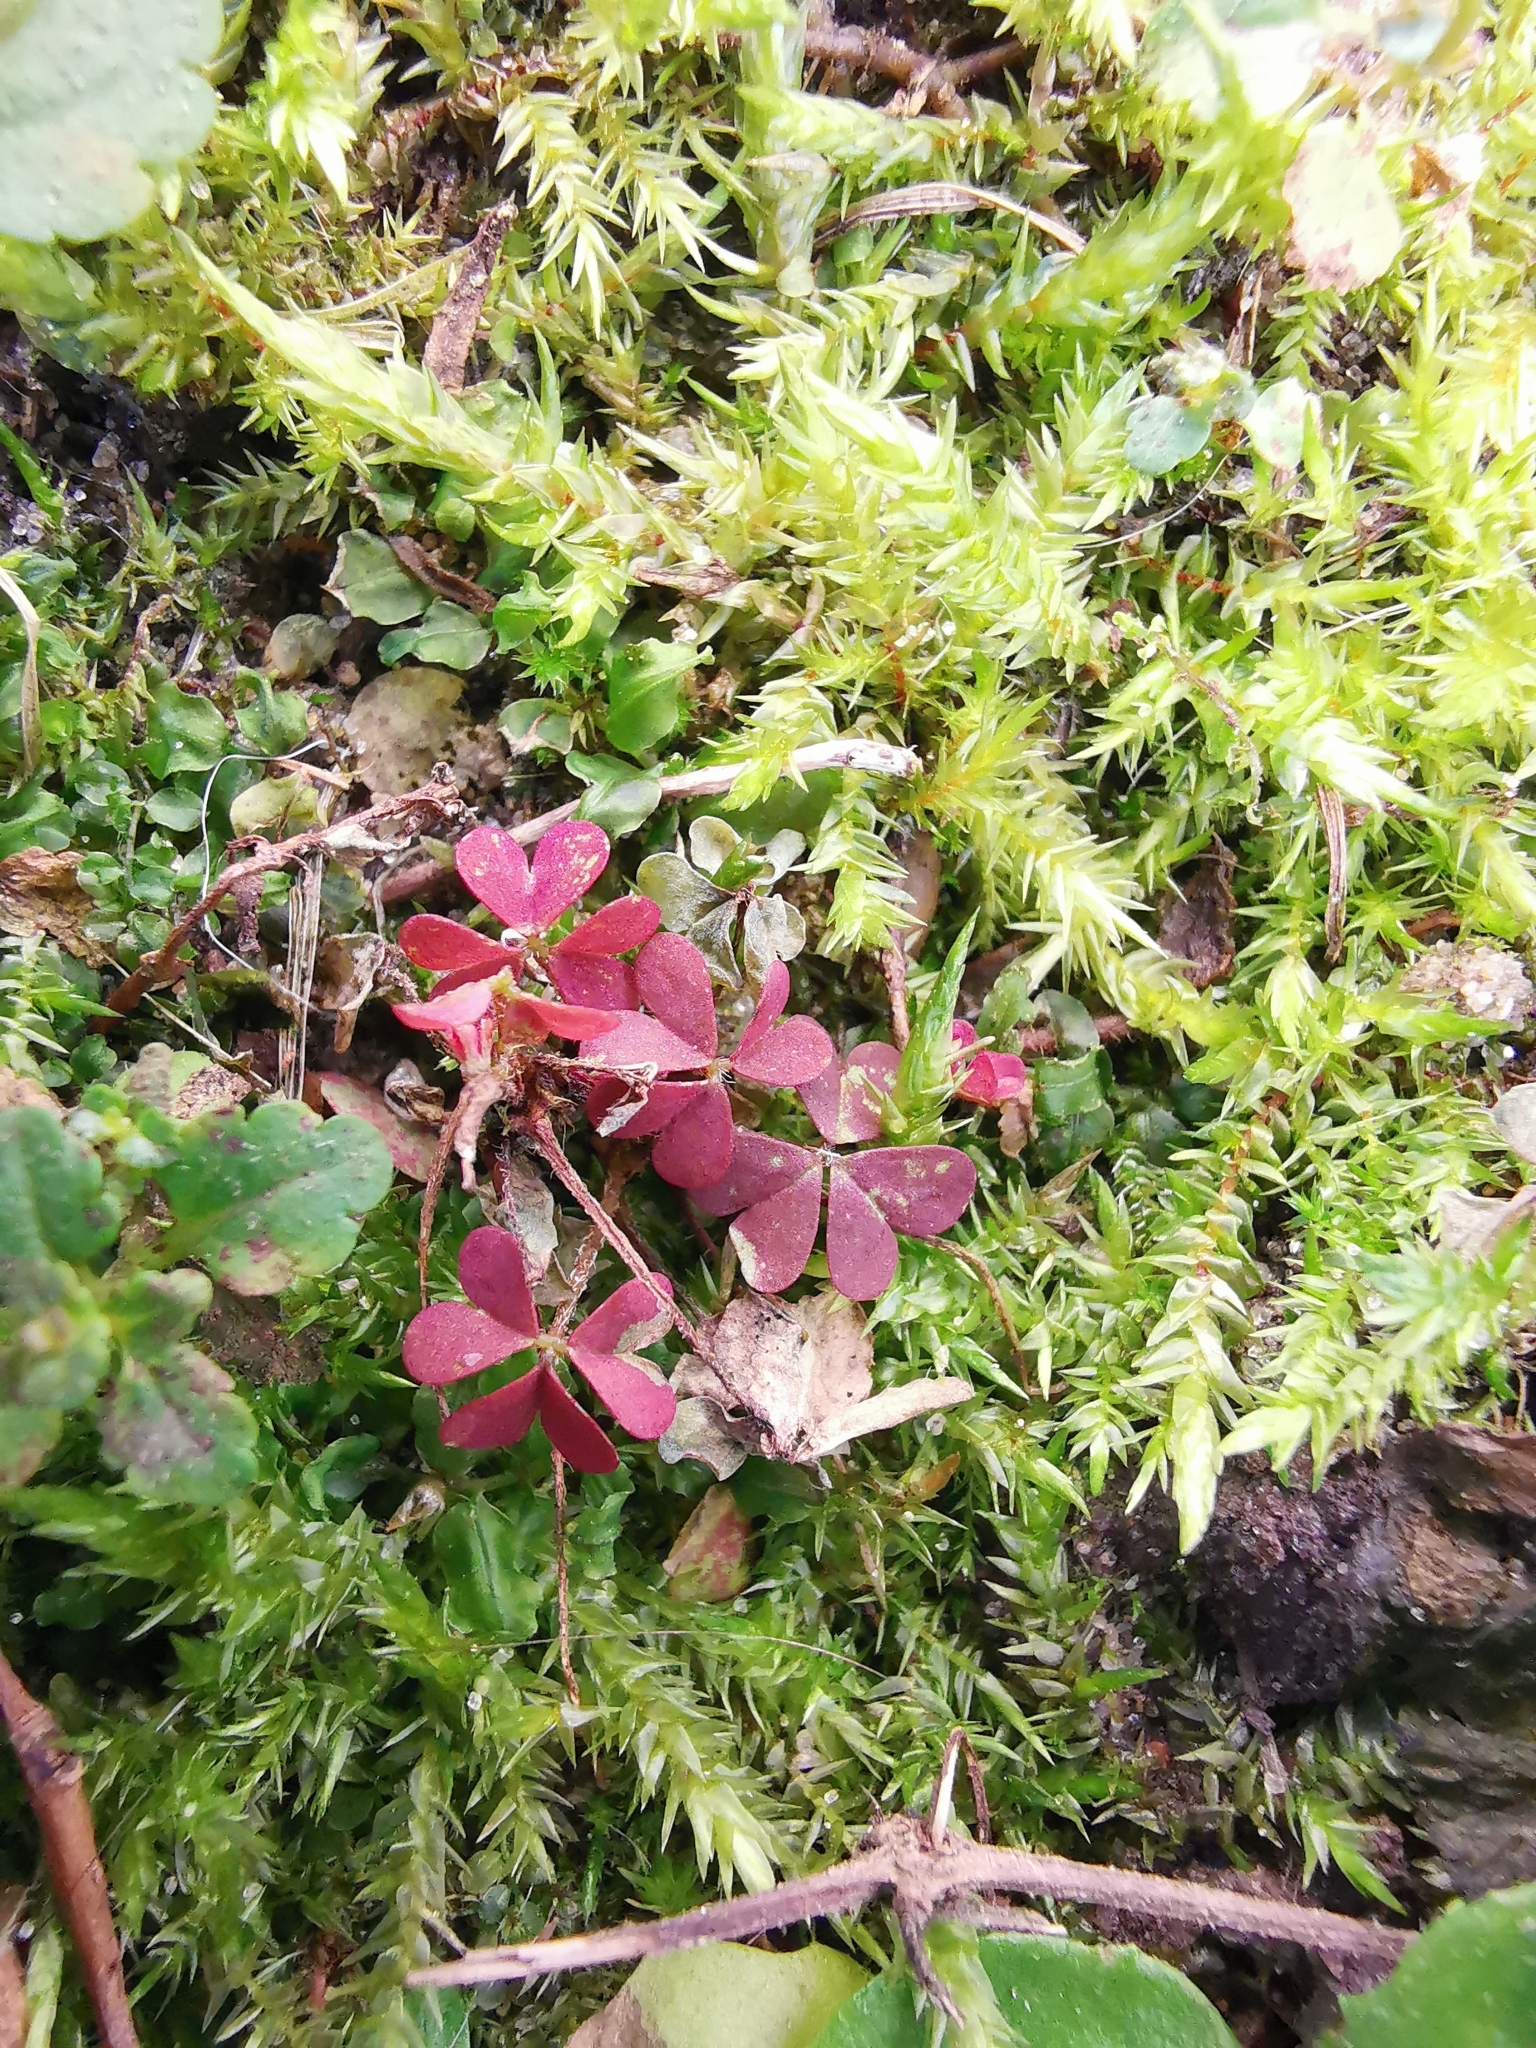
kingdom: Plantae
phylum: Tracheophyta
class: Magnoliopsida
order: Oxalidales
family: Oxalidaceae
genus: Oxalis
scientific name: Oxalis corniculata
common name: Procumbent yellow-sorrel
